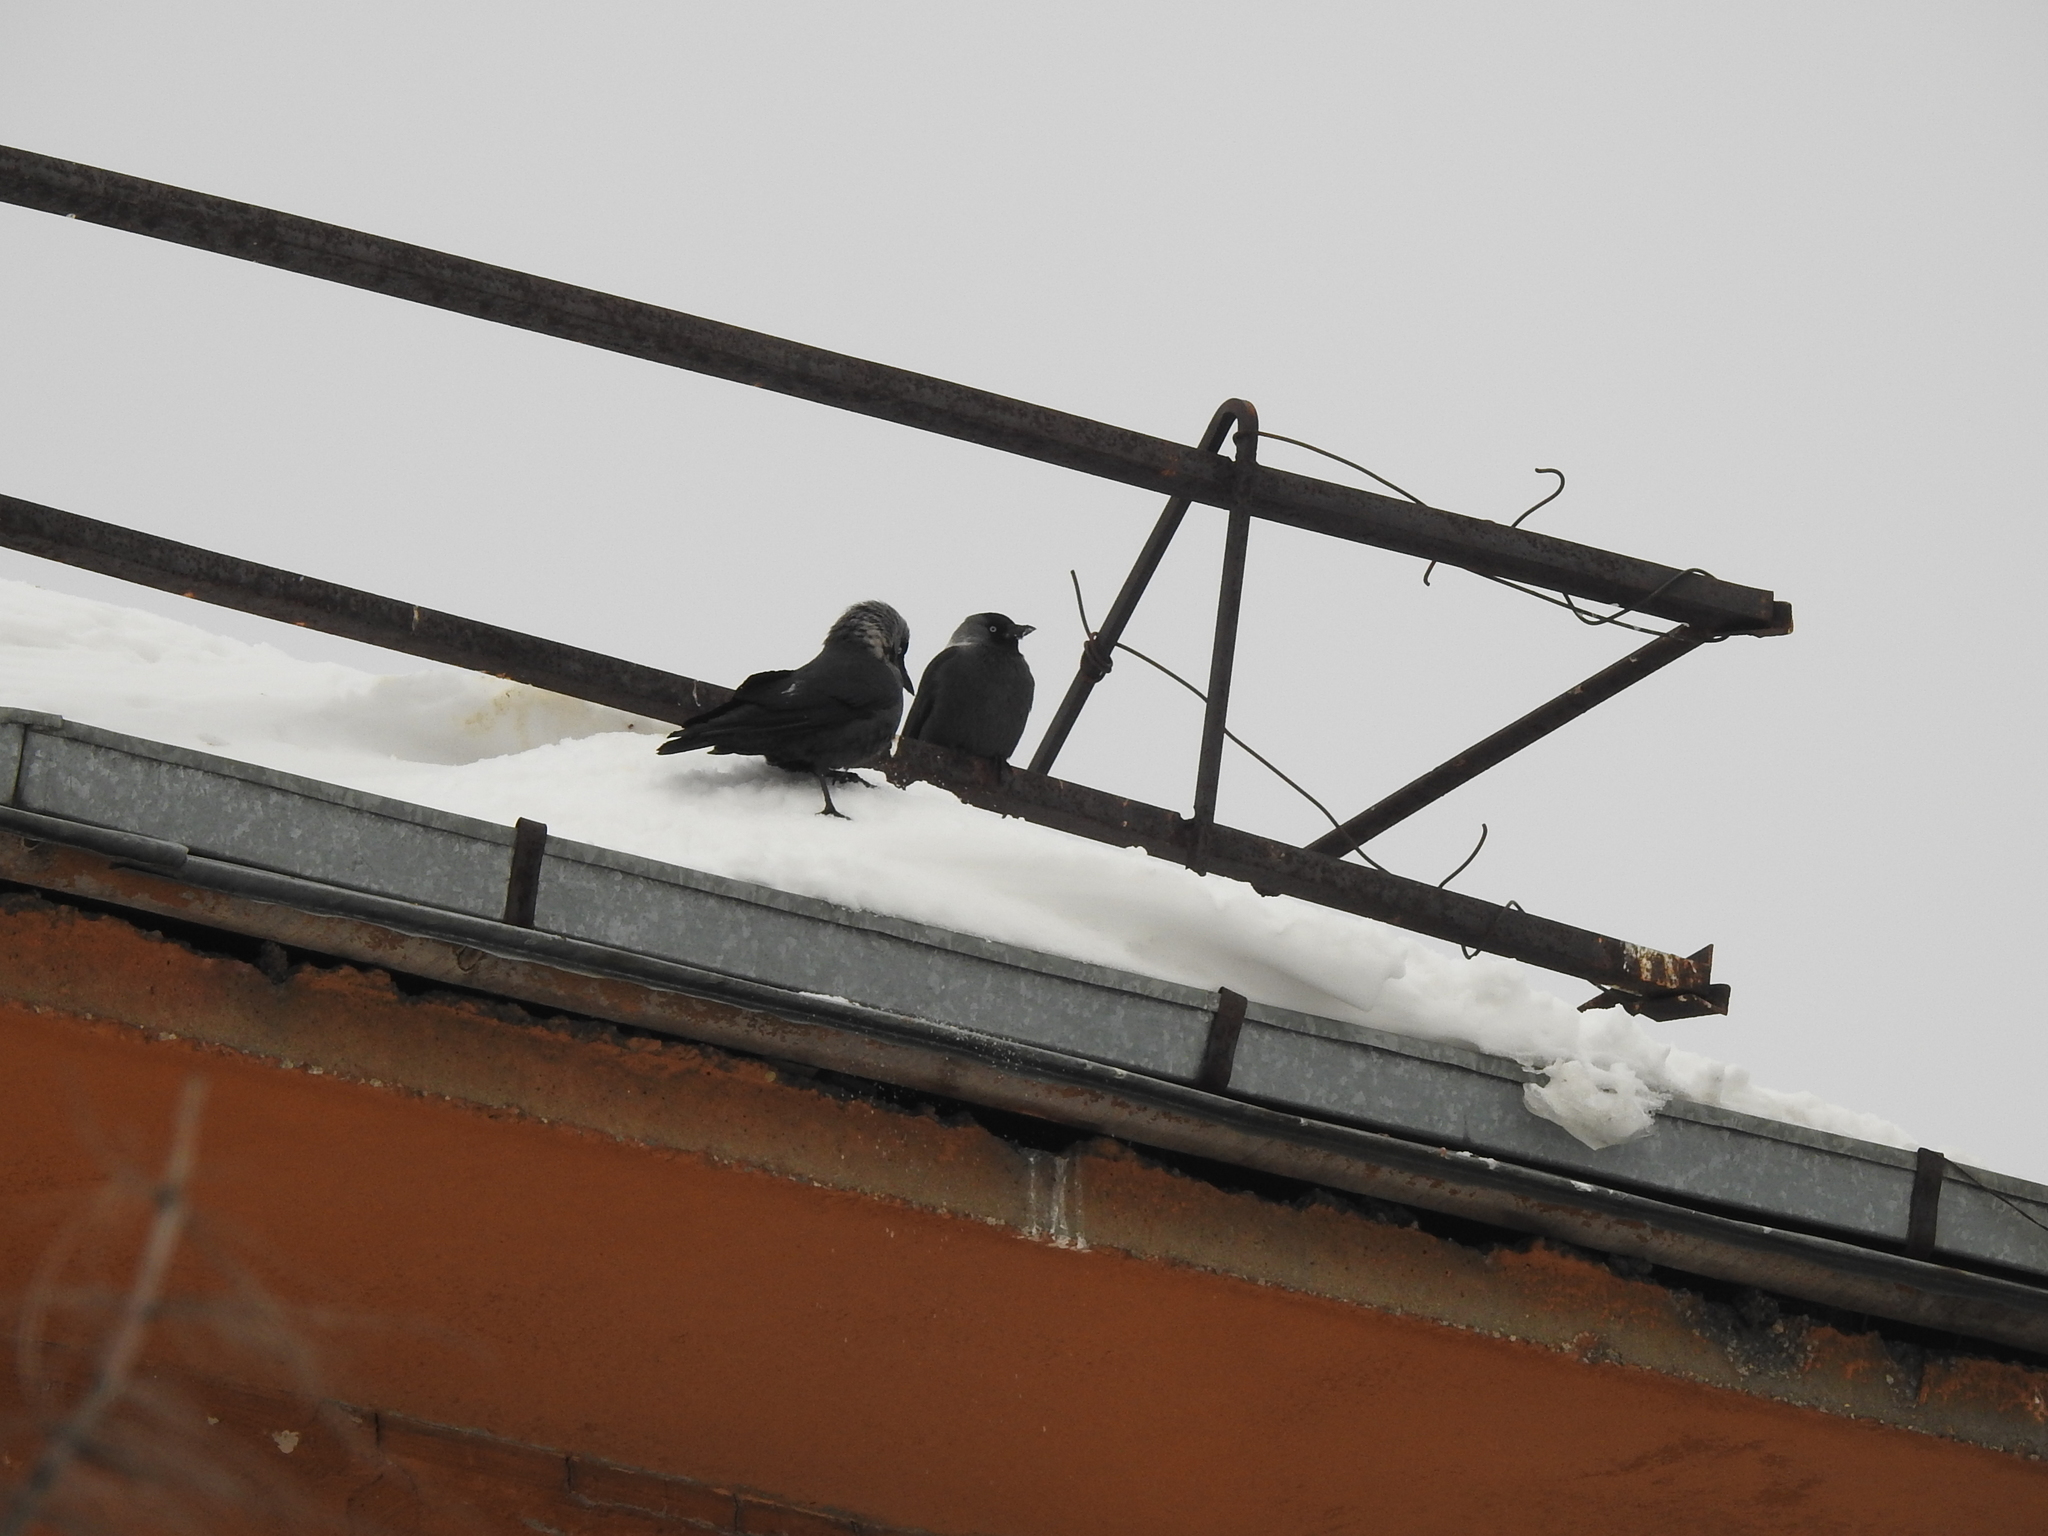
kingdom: Animalia
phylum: Chordata
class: Aves
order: Passeriformes
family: Corvidae
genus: Coloeus
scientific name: Coloeus monedula
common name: Western jackdaw
